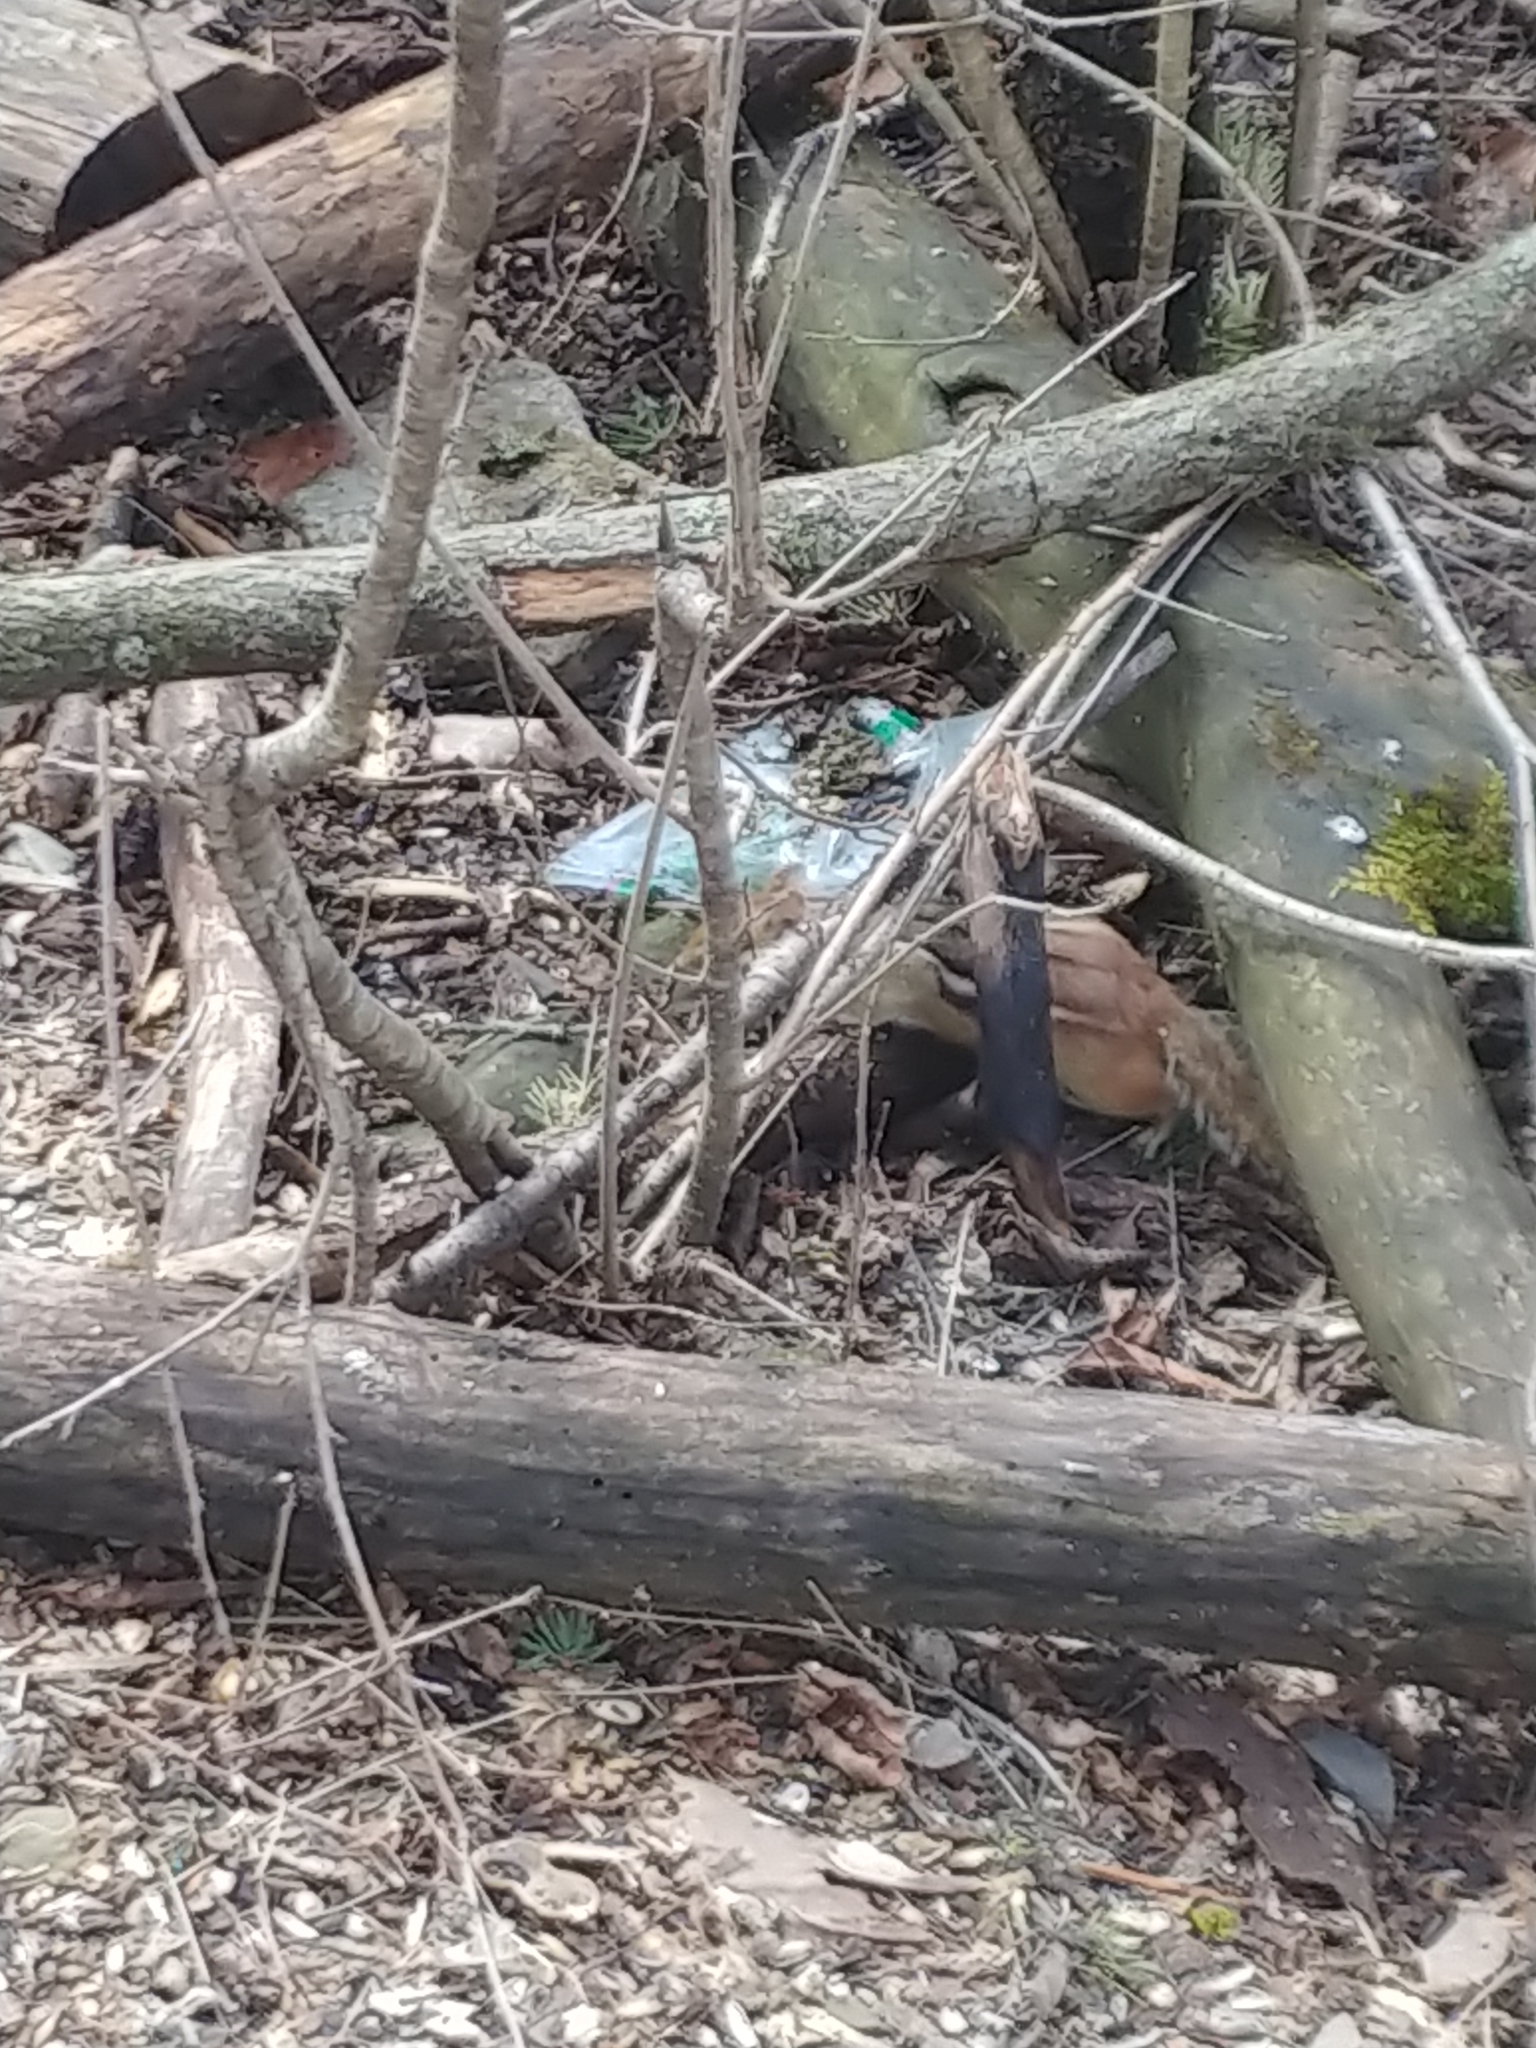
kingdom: Animalia
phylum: Chordata
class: Mammalia
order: Rodentia
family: Sciuridae
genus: Tamias
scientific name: Tamias striatus
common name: Eastern chipmunk
